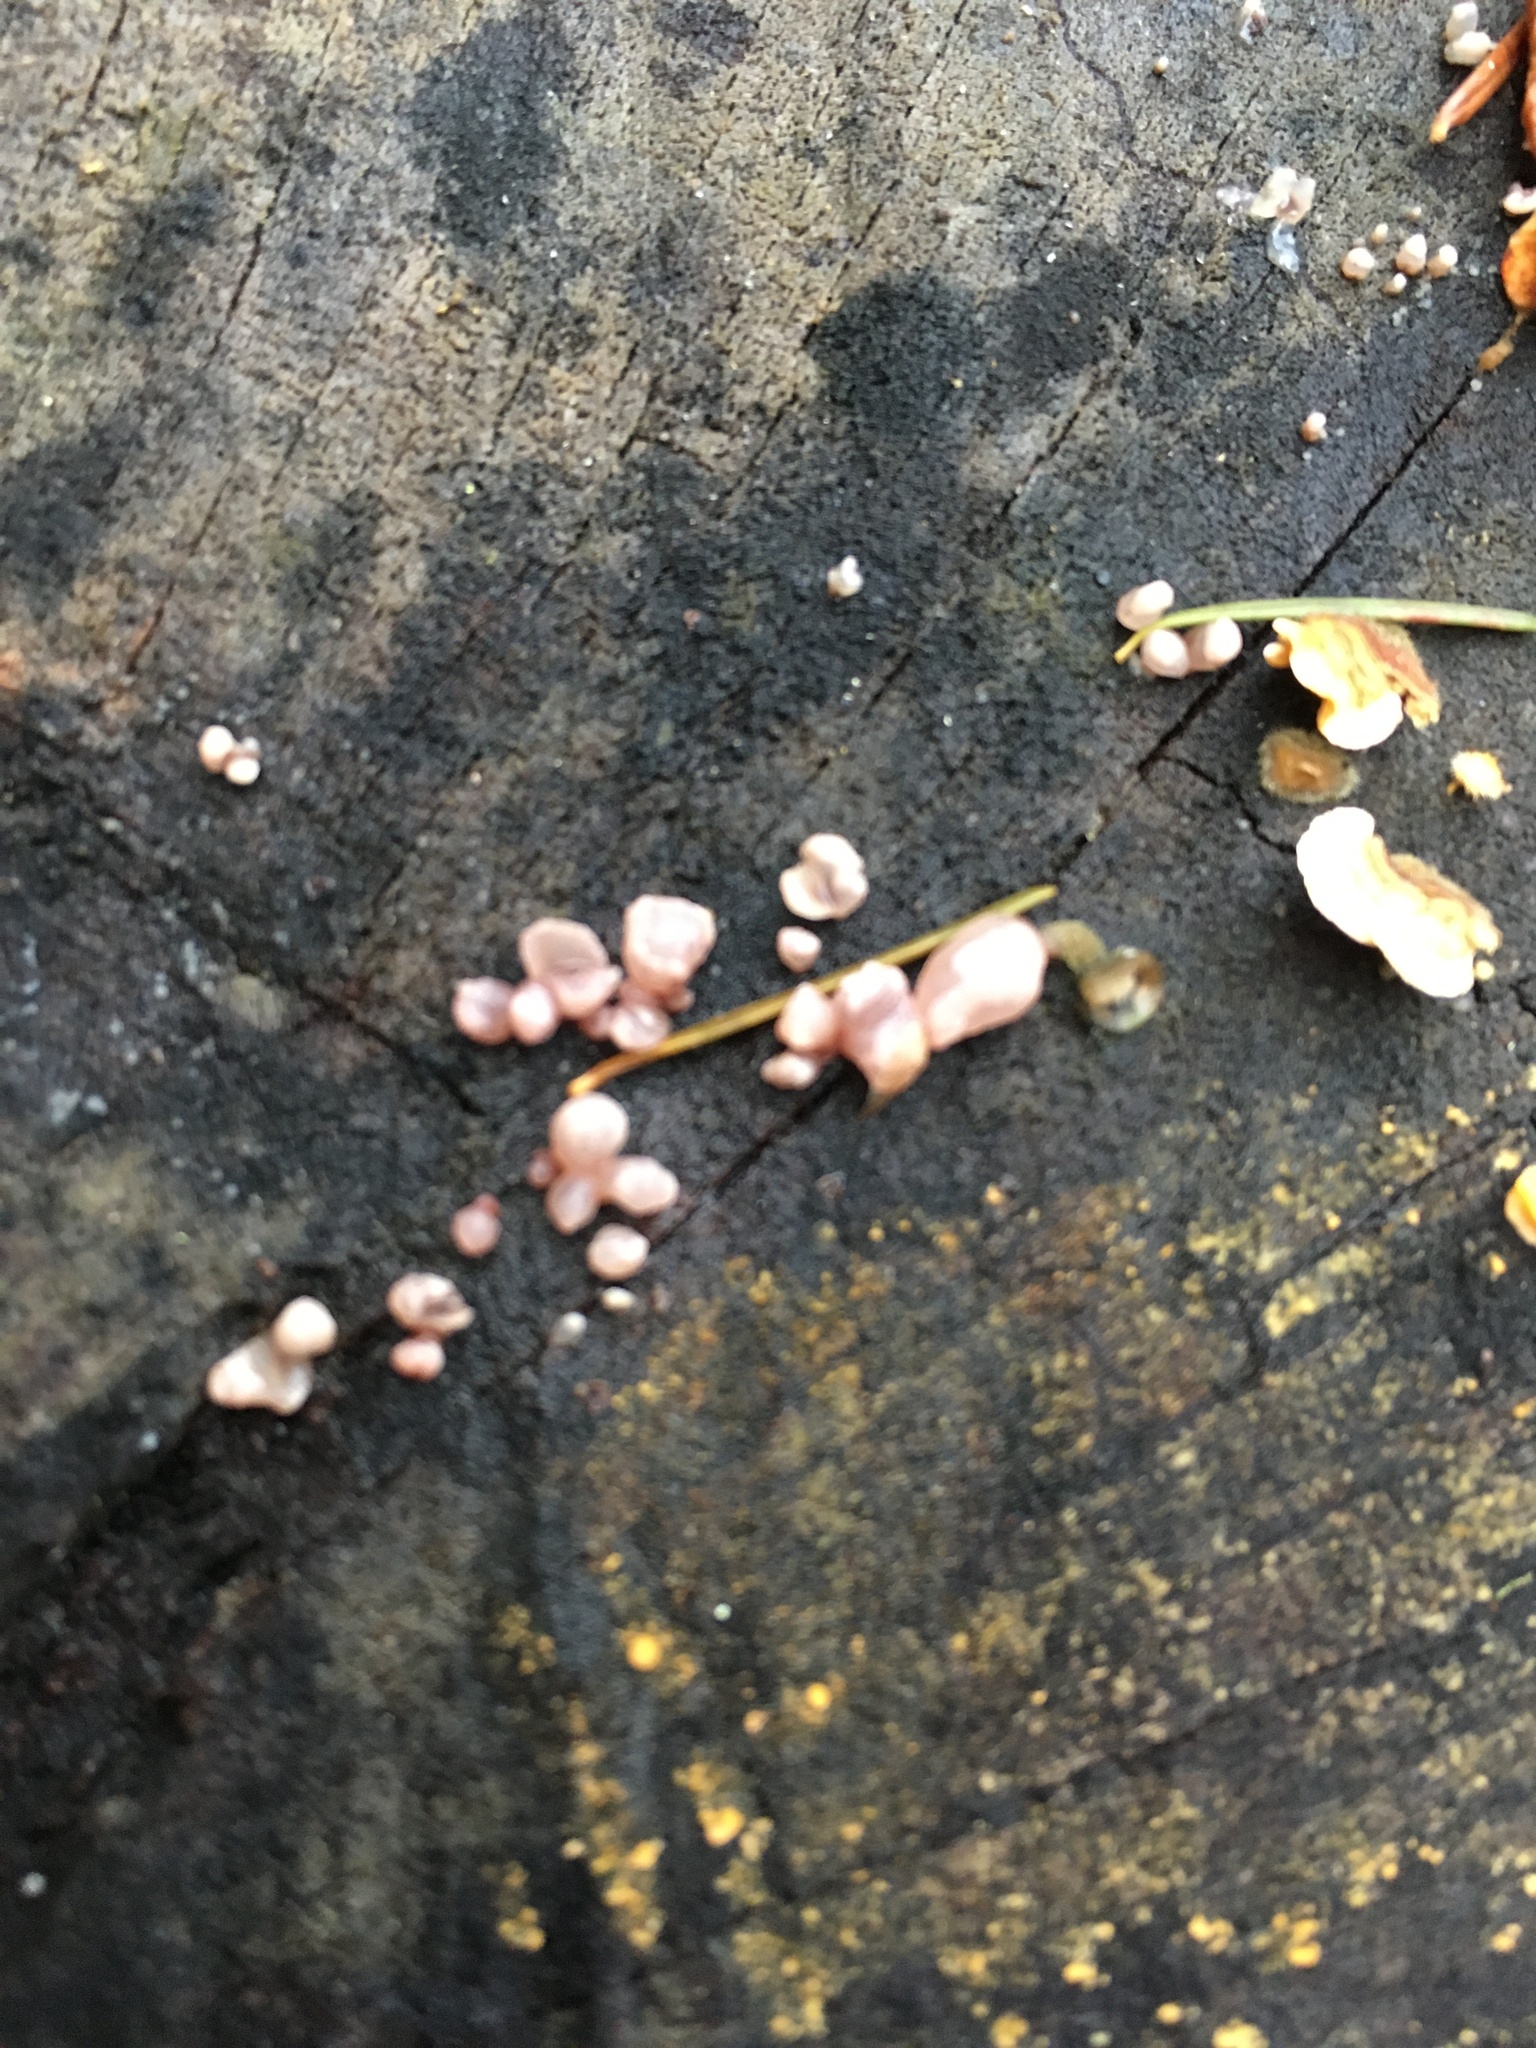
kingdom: Fungi
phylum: Ascomycota
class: Leotiomycetes
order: Helotiales
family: Gelatinodiscaceae
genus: Ascocoryne
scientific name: Ascocoryne sarcoides
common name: Purple jellydisc
